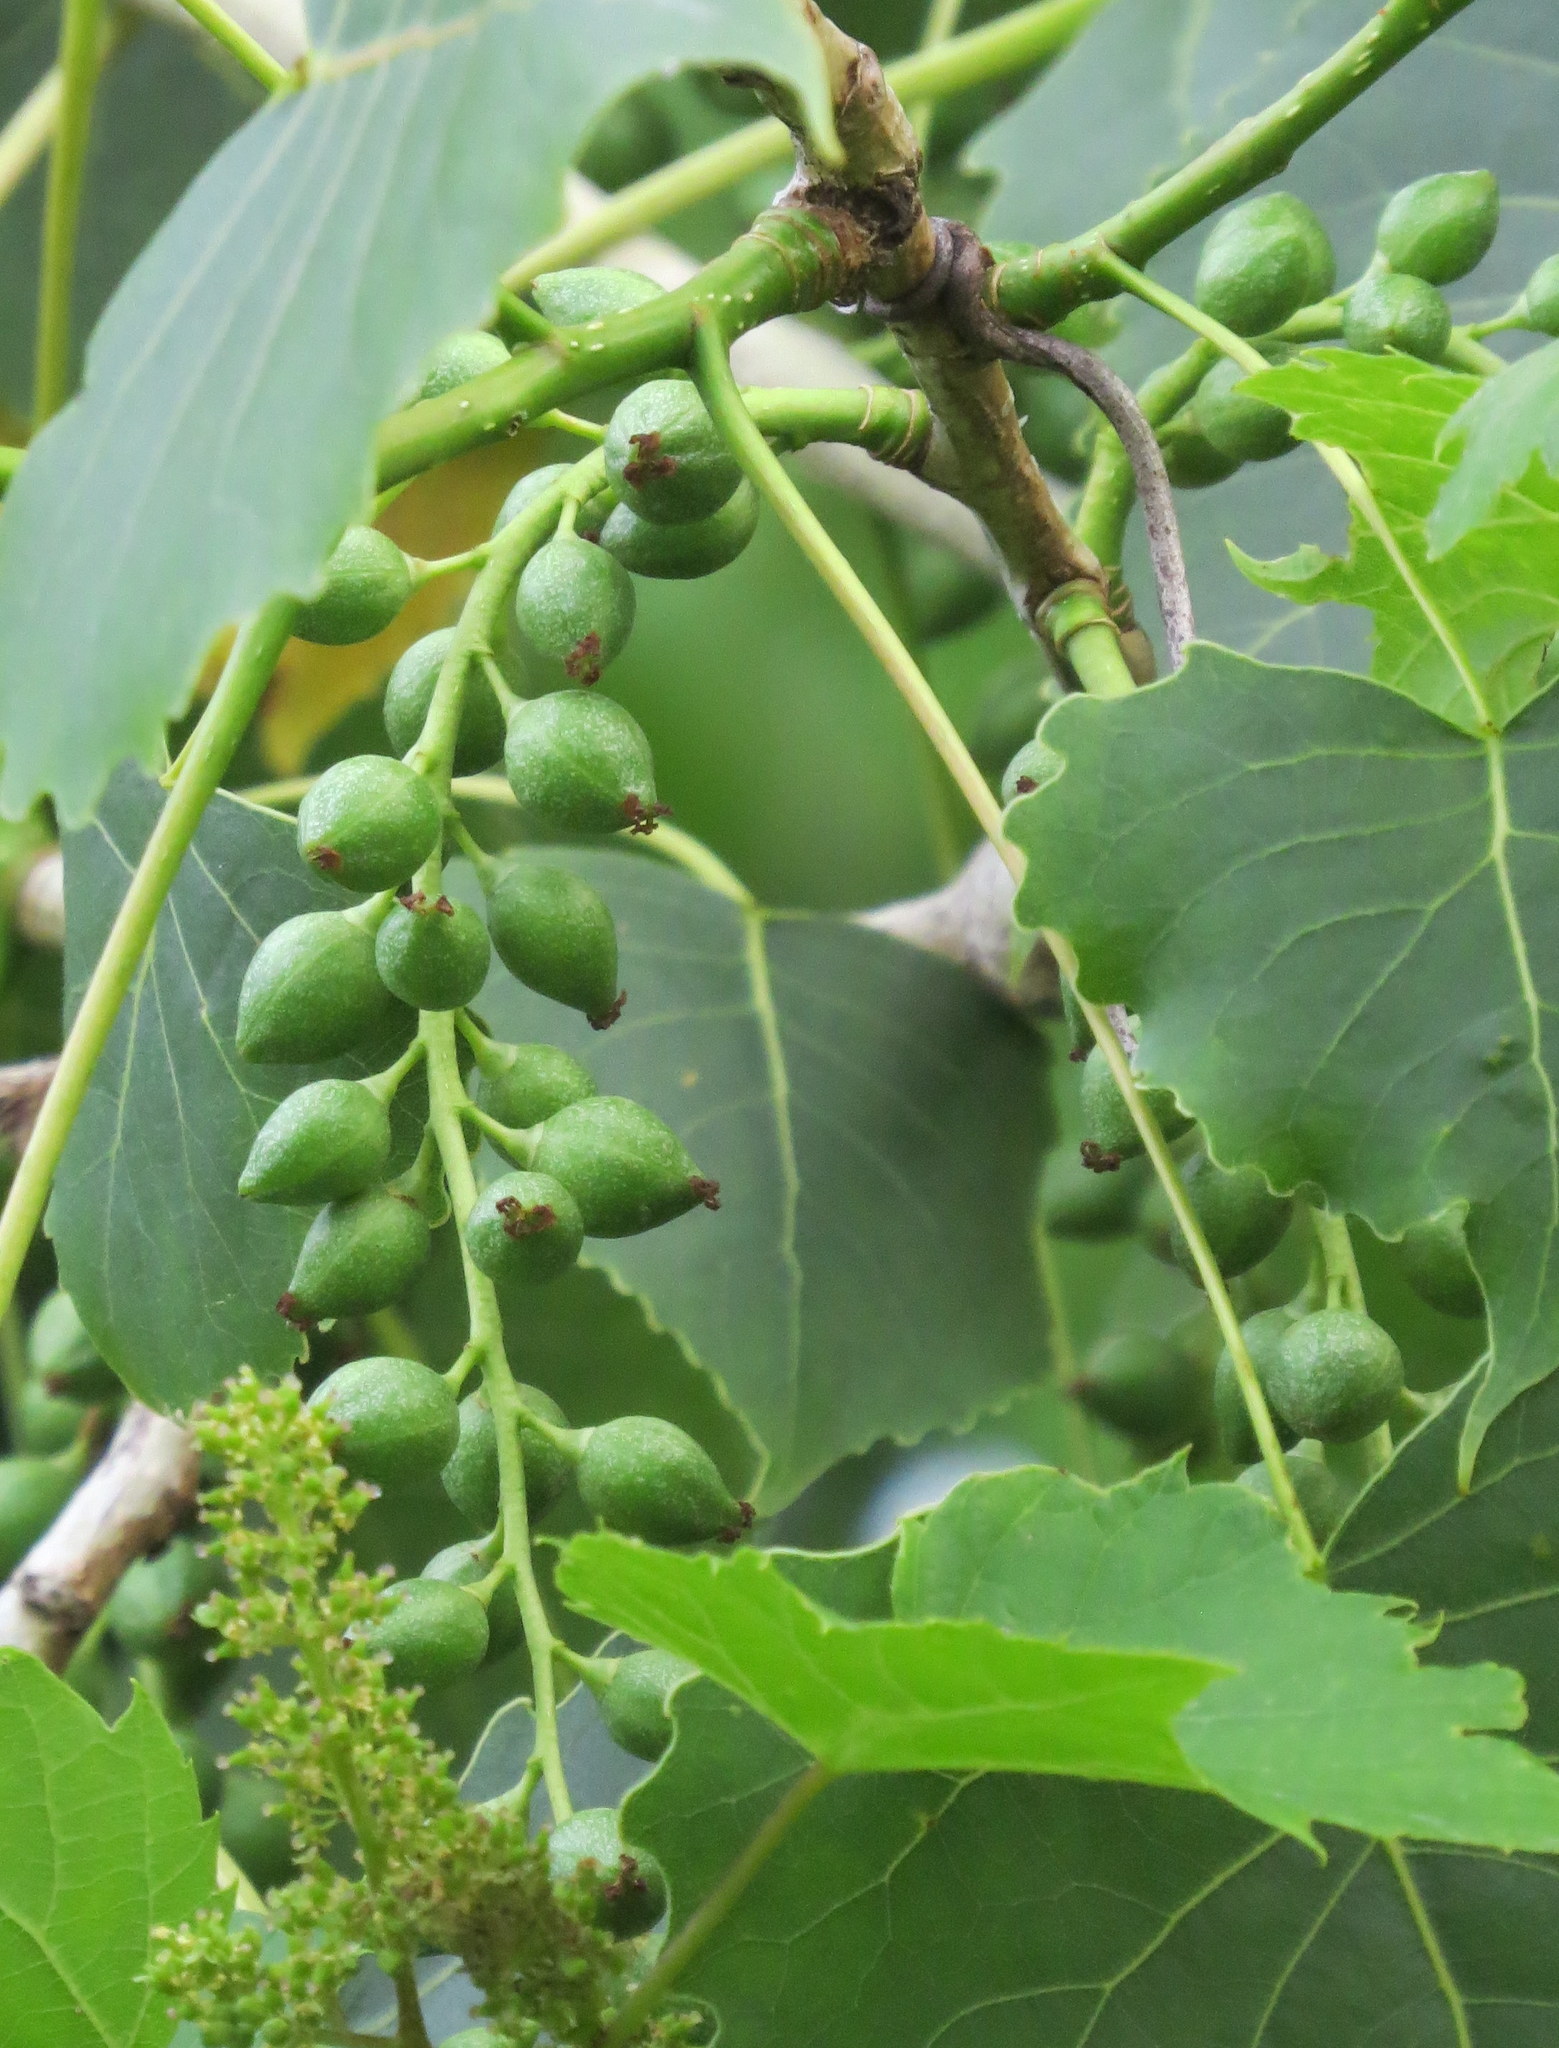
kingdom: Plantae
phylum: Tracheophyta
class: Magnoliopsida
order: Malpighiales
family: Salicaceae
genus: Populus
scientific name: Populus deltoides
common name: Eastern cottonwood
